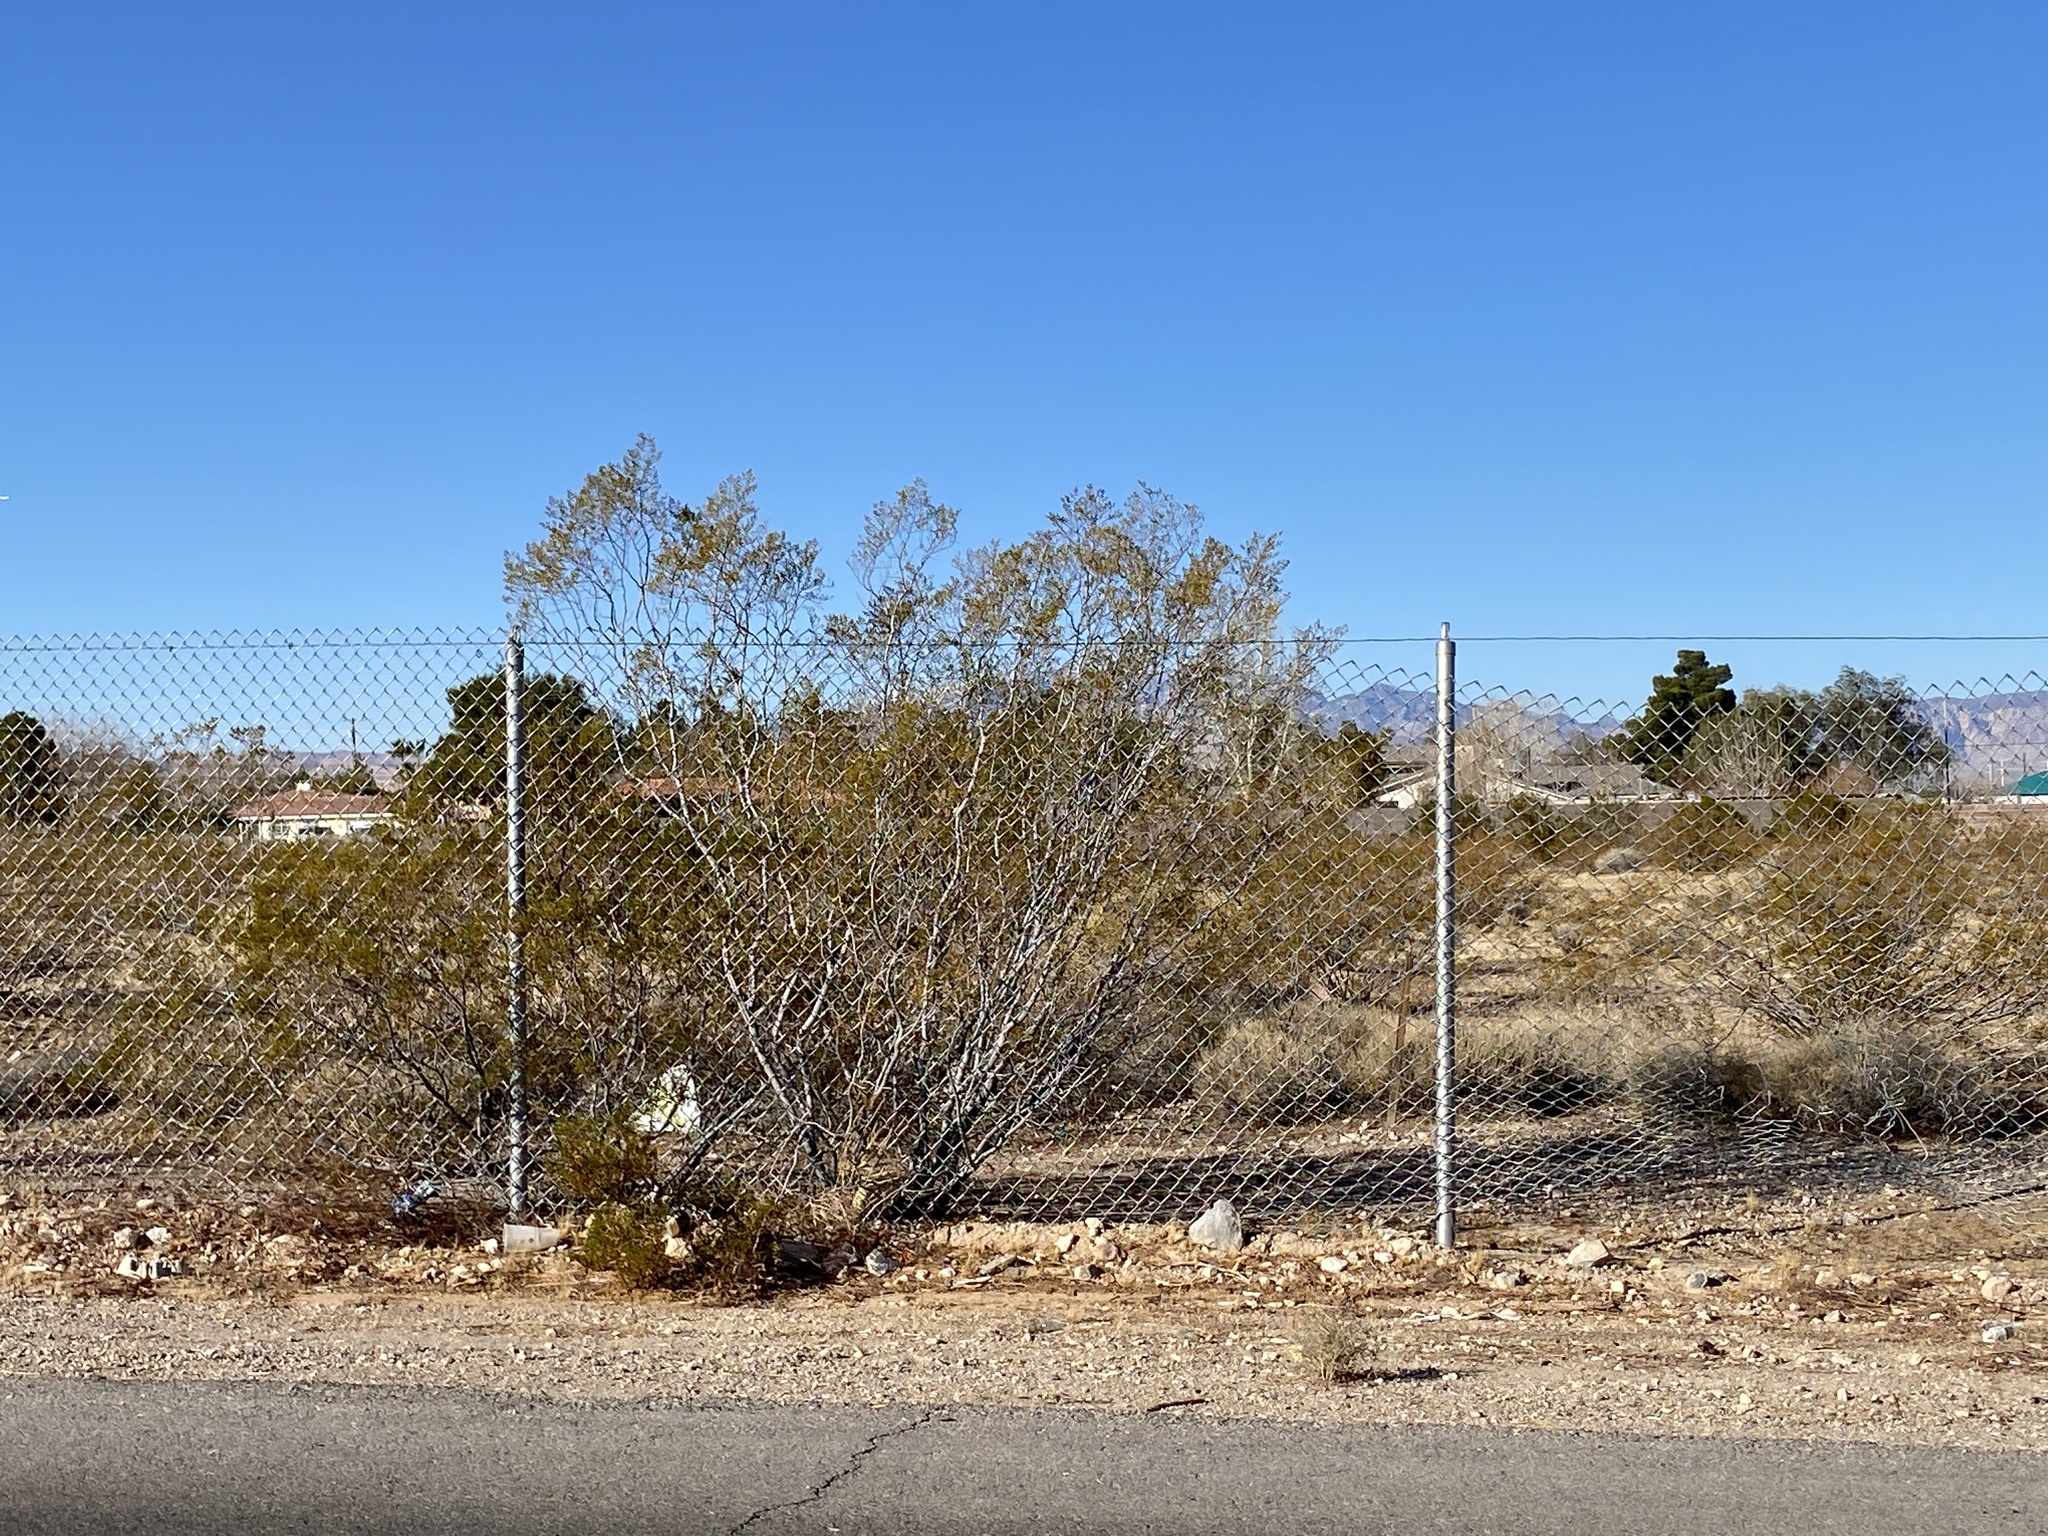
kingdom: Plantae
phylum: Tracheophyta
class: Magnoliopsida
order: Zygophyllales
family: Zygophyllaceae
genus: Larrea
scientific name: Larrea tridentata
